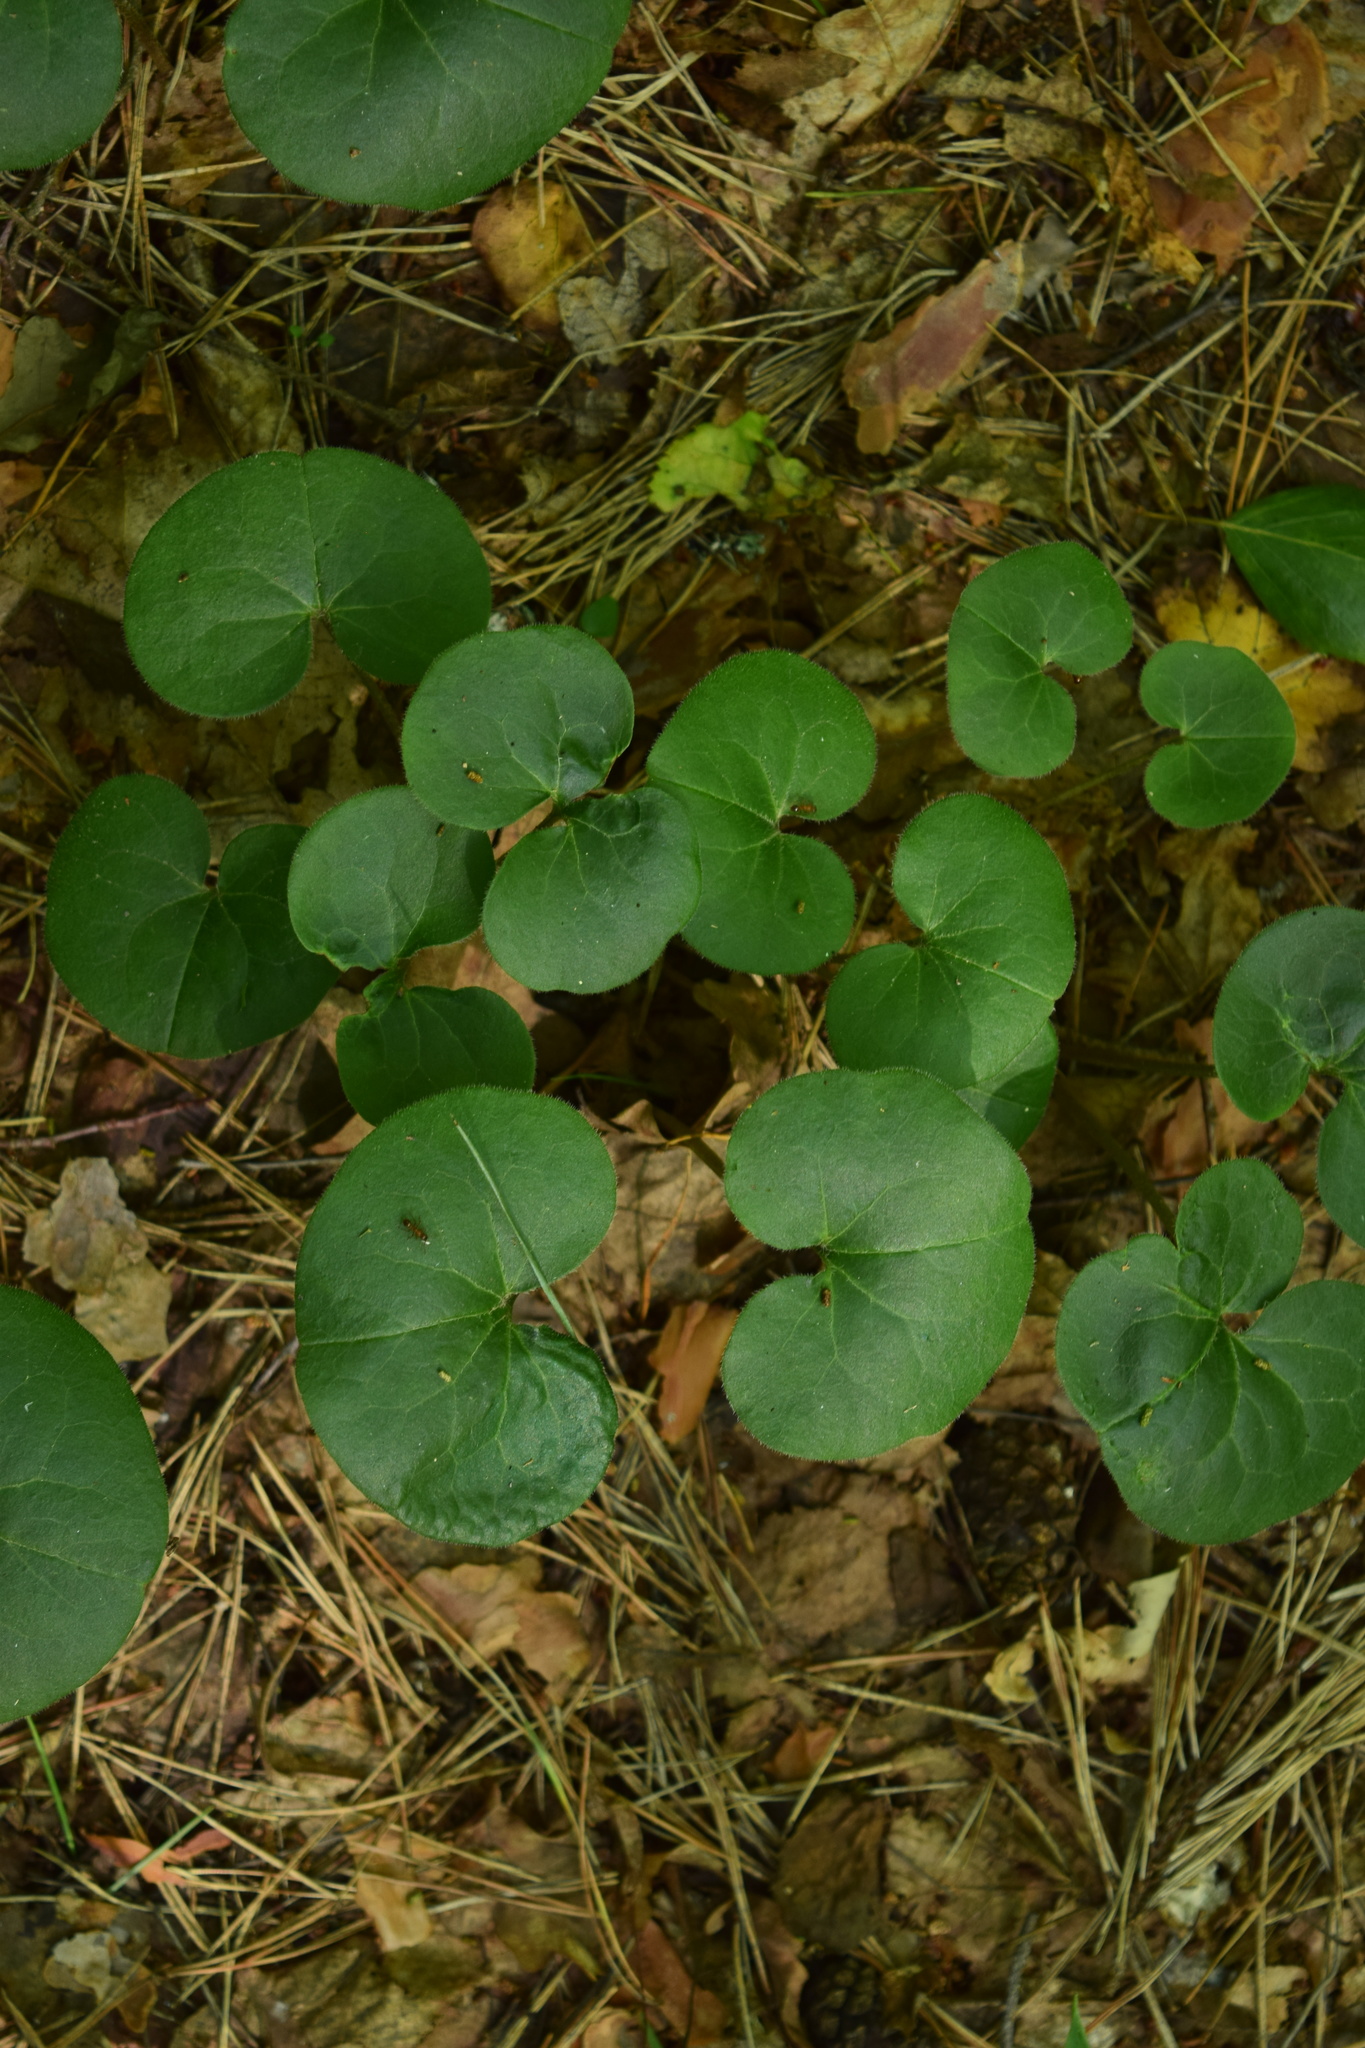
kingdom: Plantae
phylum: Tracheophyta
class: Magnoliopsida
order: Piperales
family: Aristolochiaceae
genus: Asarum
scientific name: Asarum europaeum
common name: Asarabacca
